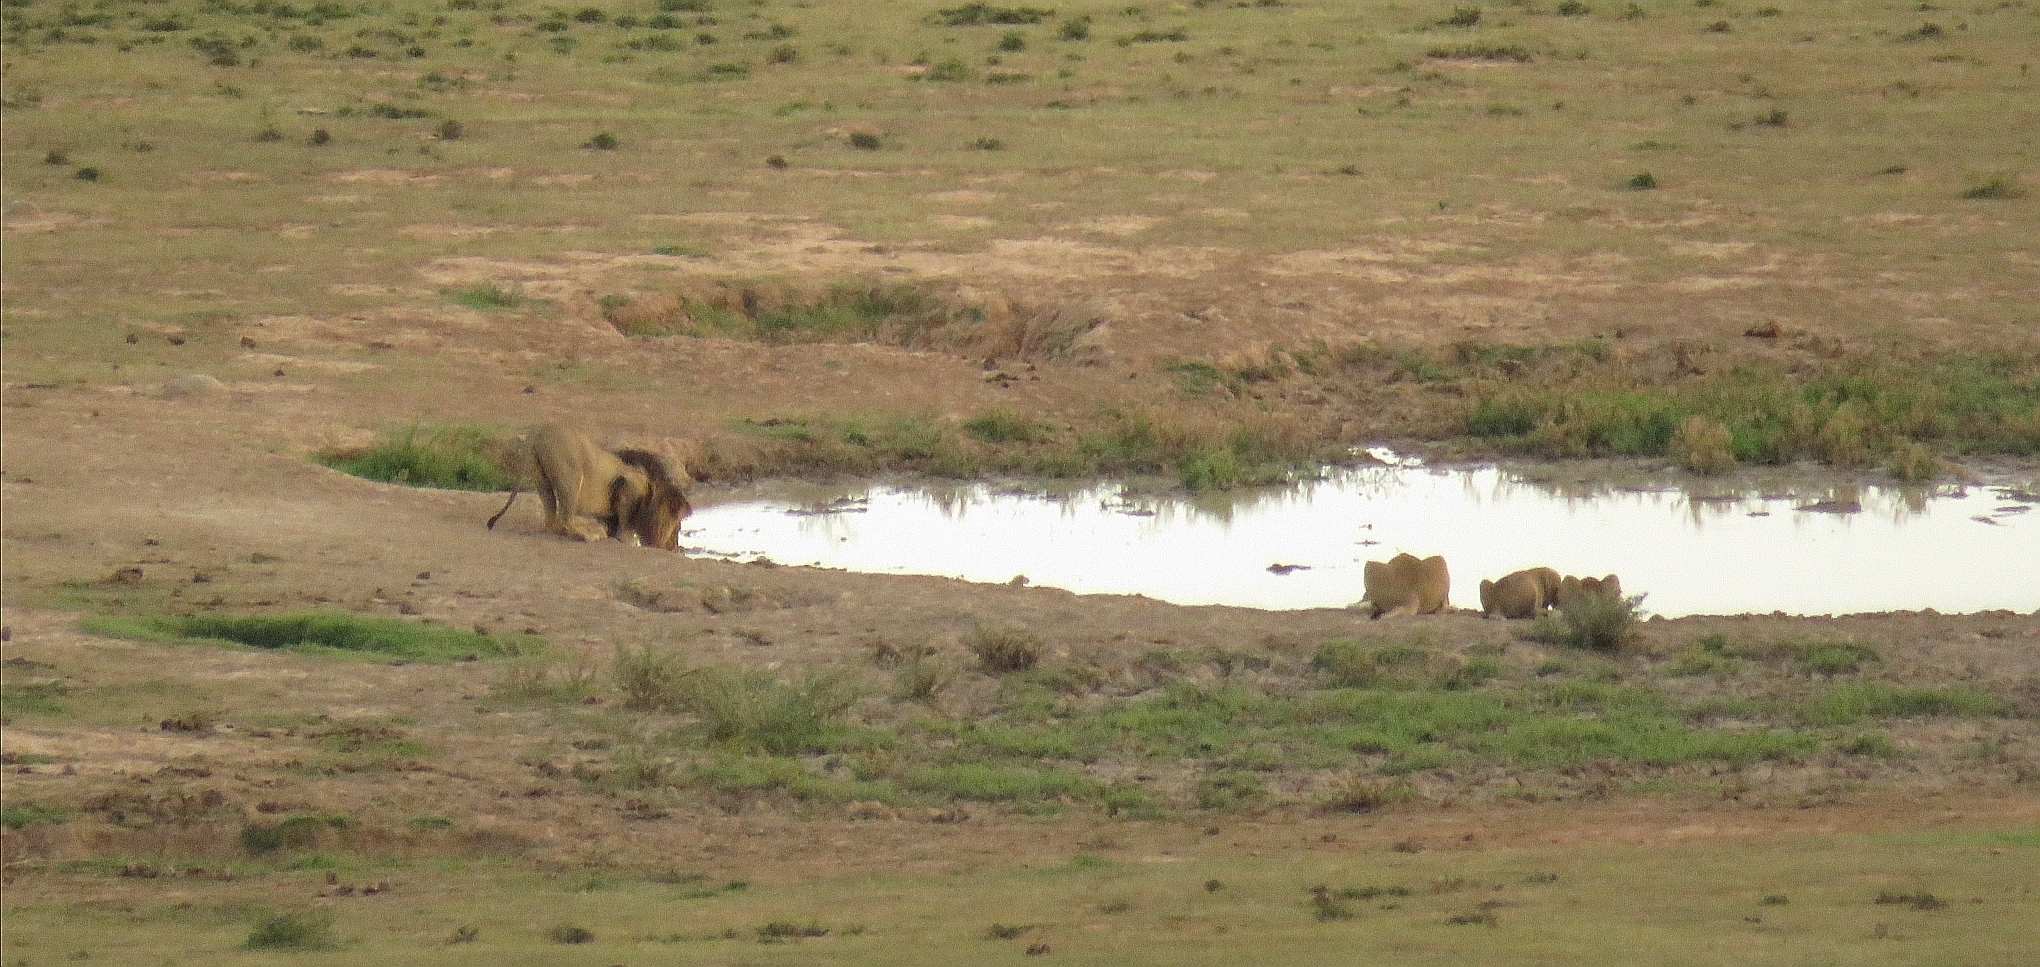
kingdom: Animalia
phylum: Chordata
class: Mammalia
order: Carnivora
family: Felidae
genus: Panthera
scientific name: Panthera leo
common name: Lion
